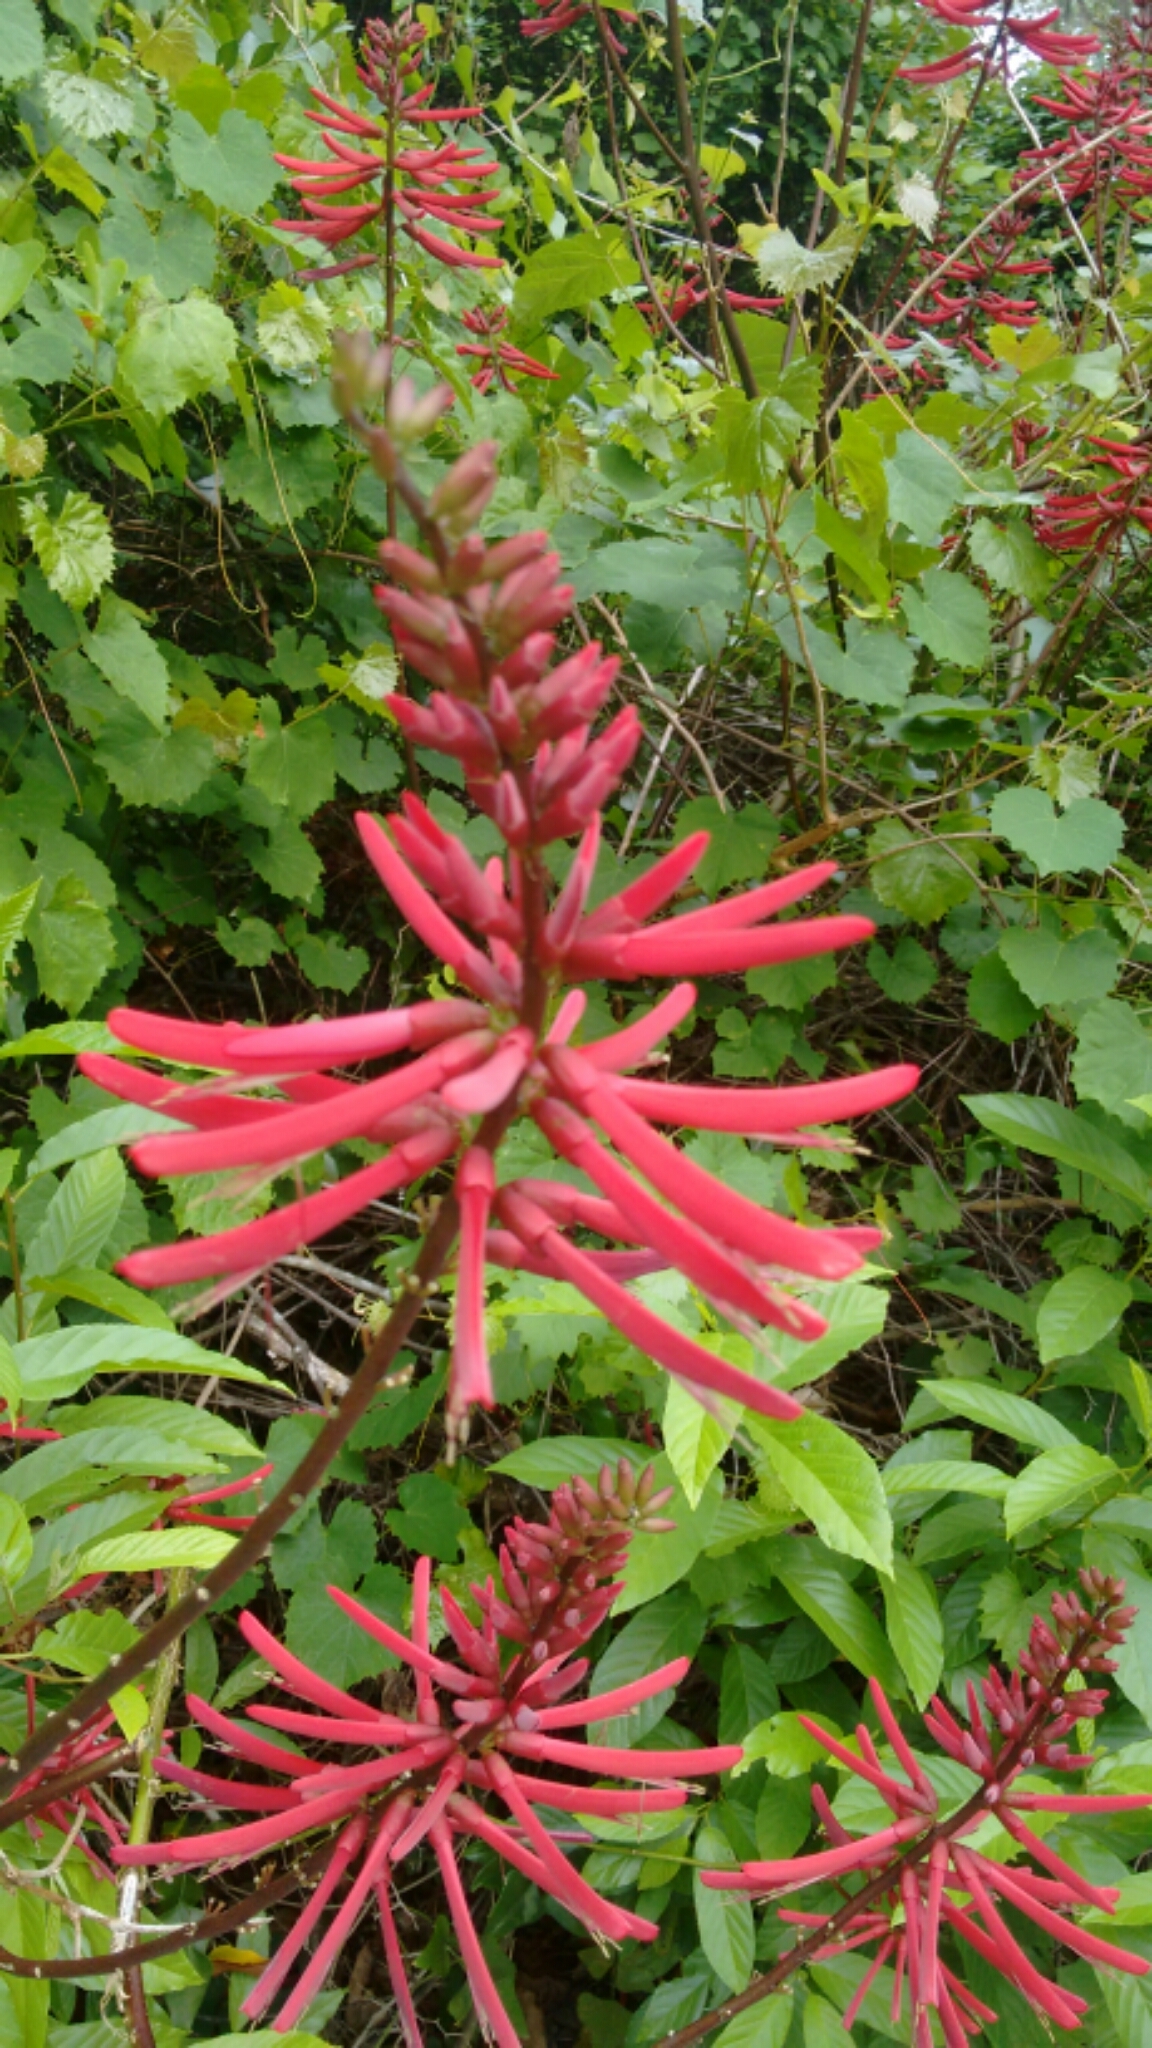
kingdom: Plantae
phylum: Tracheophyta
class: Magnoliopsida
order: Fabales
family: Fabaceae
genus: Erythrina
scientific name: Erythrina herbacea
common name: Coral-bean
